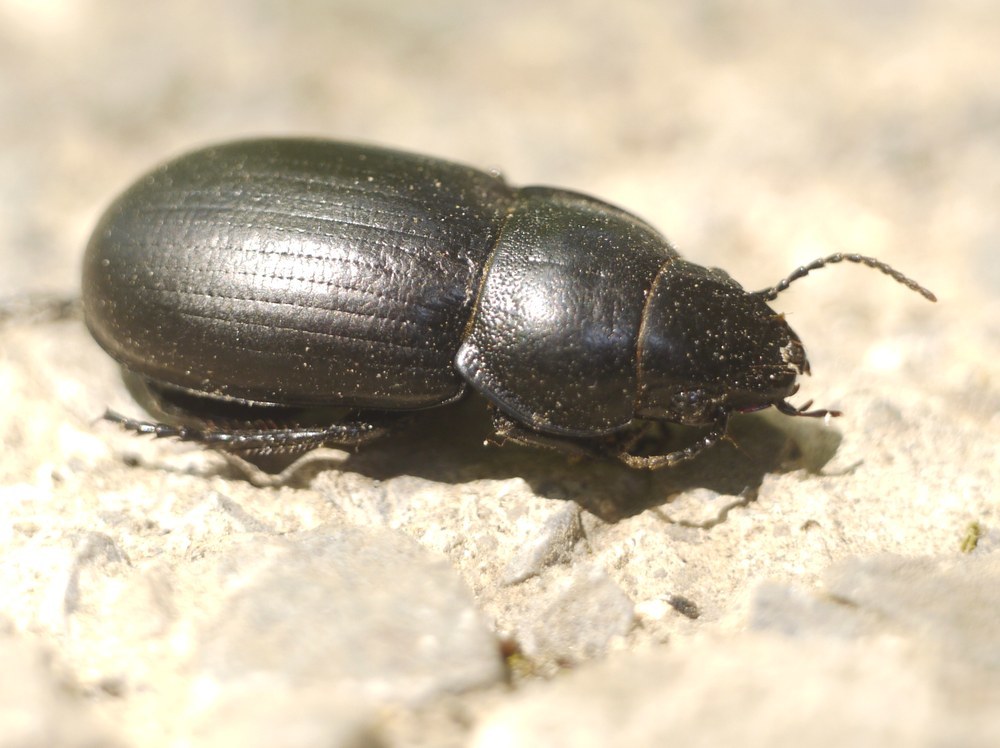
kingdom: Animalia
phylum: Arthropoda
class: Insecta
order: Coleoptera
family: Carabidae
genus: Zabrus
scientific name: Zabrus spinipes
